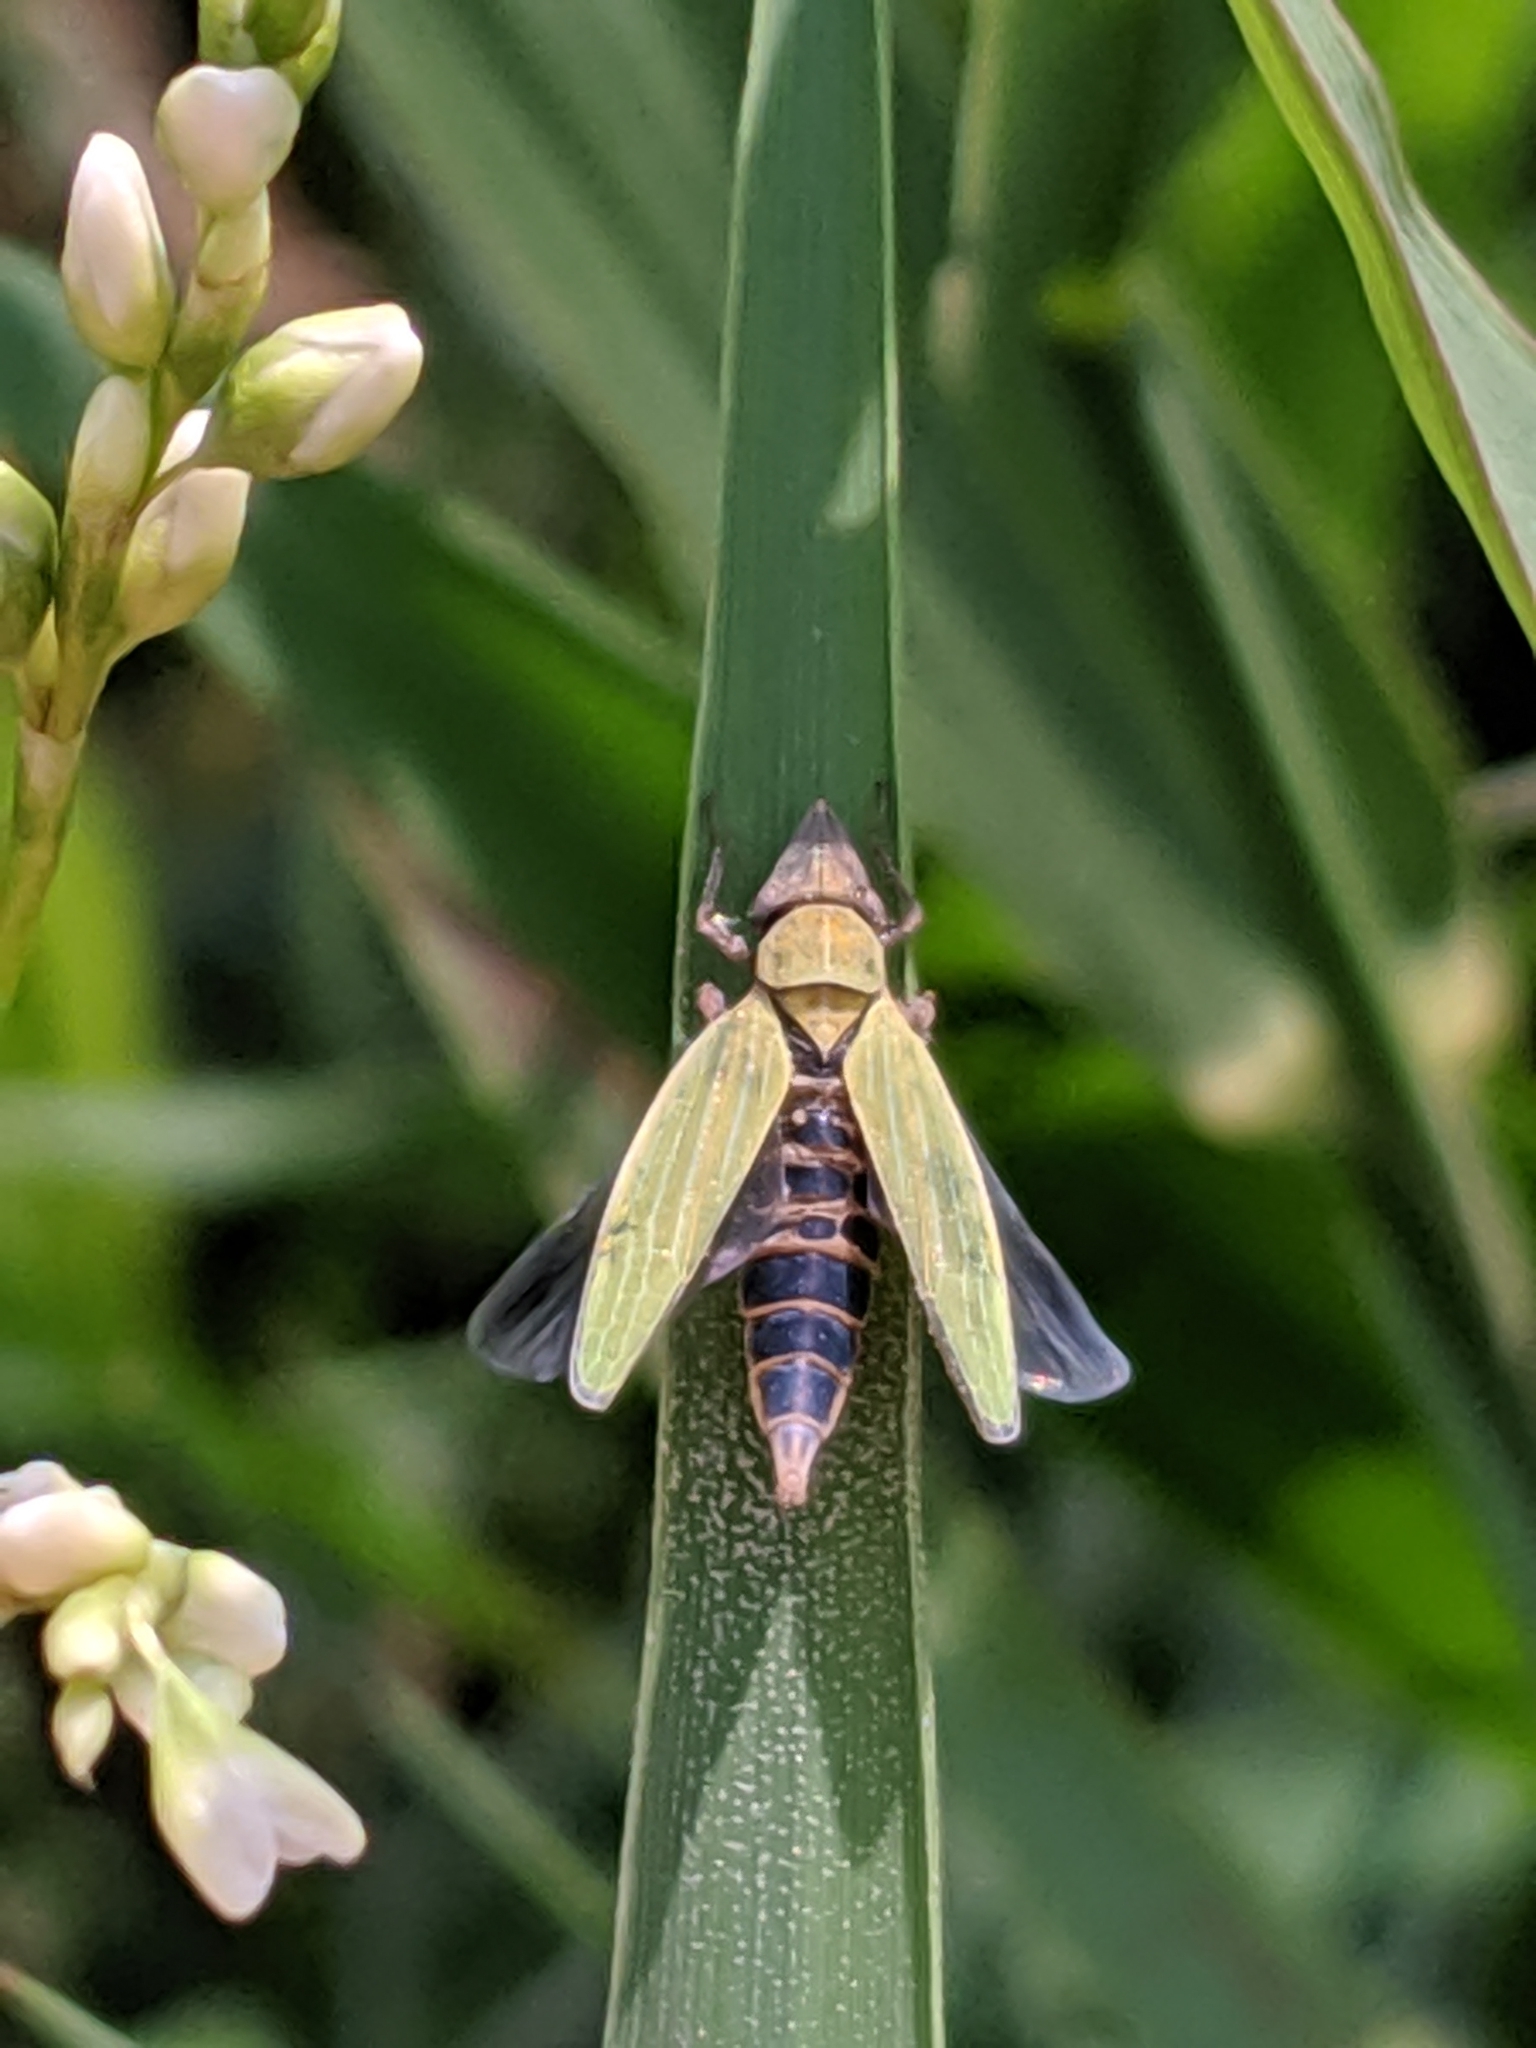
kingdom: Animalia
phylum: Arthropoda
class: Insecta
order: Hemiptera
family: Cicadellidae
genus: Draeculacephala
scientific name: Draeculacephala
